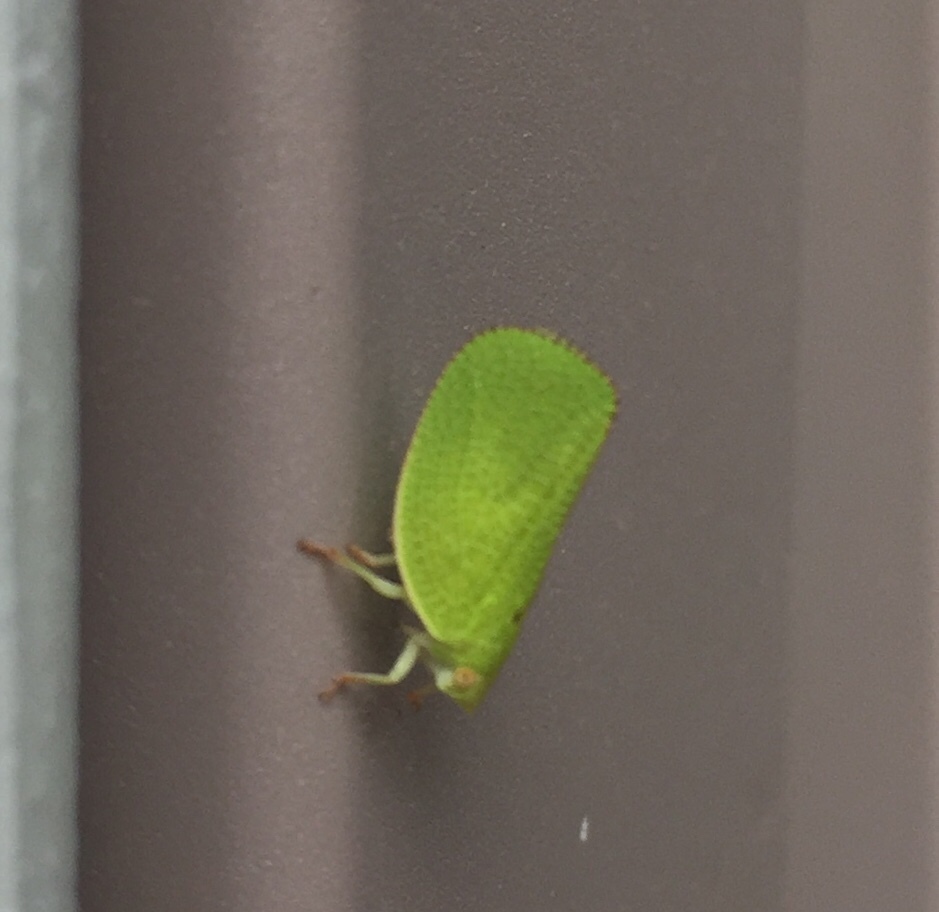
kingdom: Animalia
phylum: Arthropoda
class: Insecta
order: Hemiptera
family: Acanaloniidae
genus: Acanalonia
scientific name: Acanalonia conica
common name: Green cone-headed planthopper
